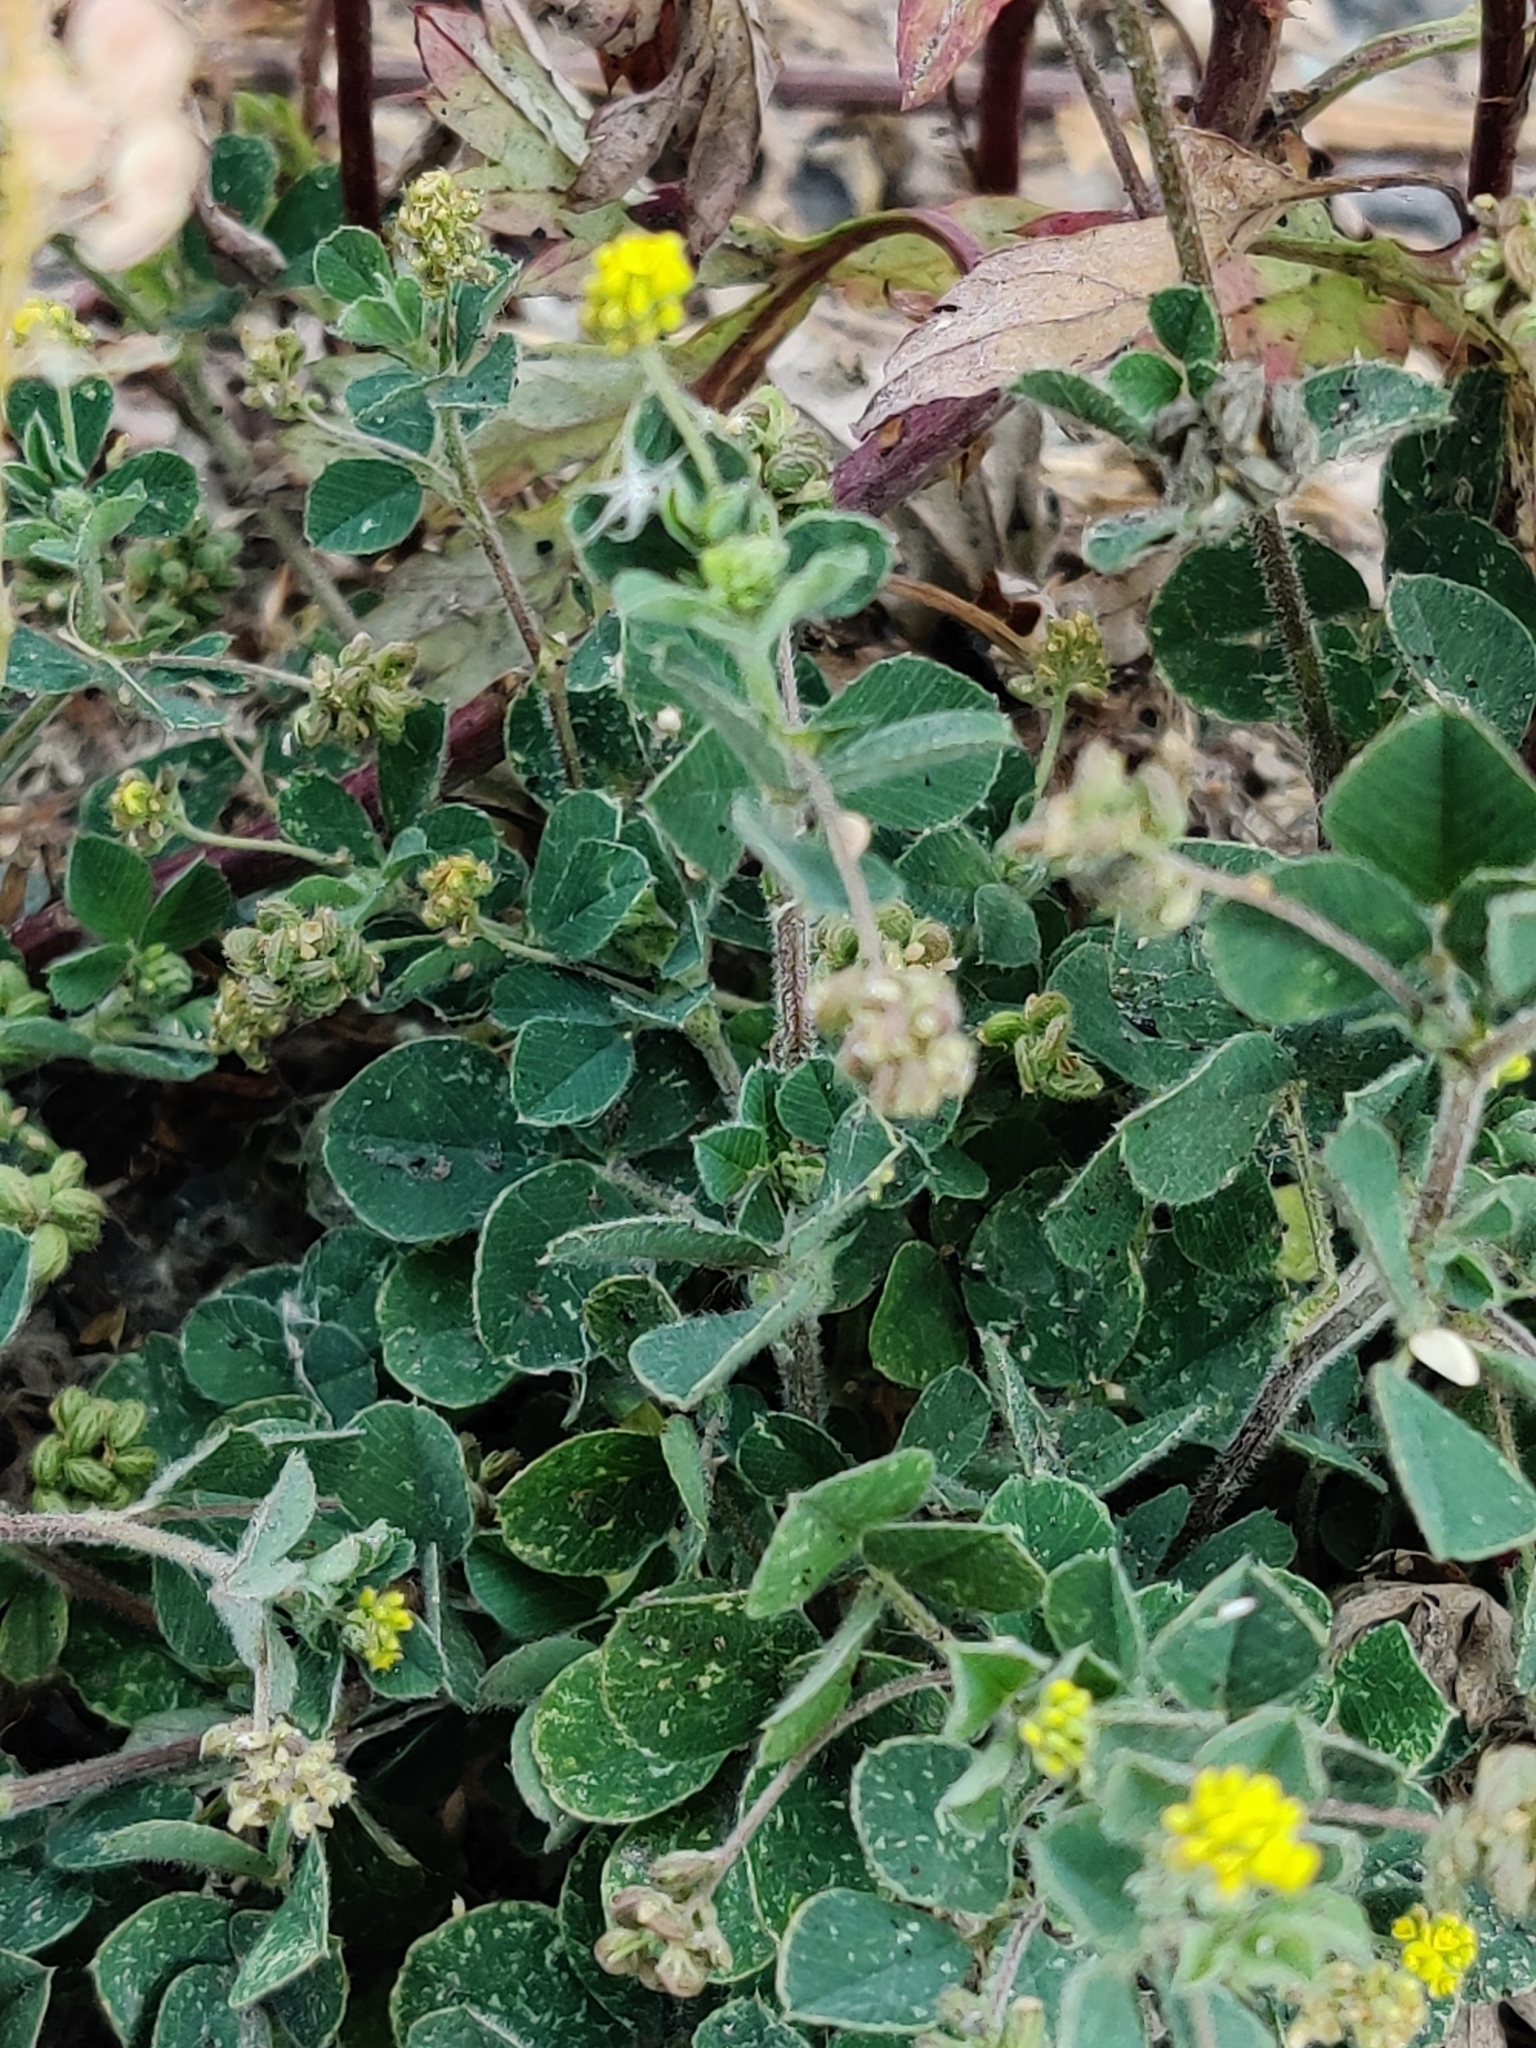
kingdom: Plantae
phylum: Tracheophyta
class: Magnoliopsida
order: Fabales
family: Fabaceae
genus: Medicago
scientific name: Medicago lupulina
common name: Black medick
